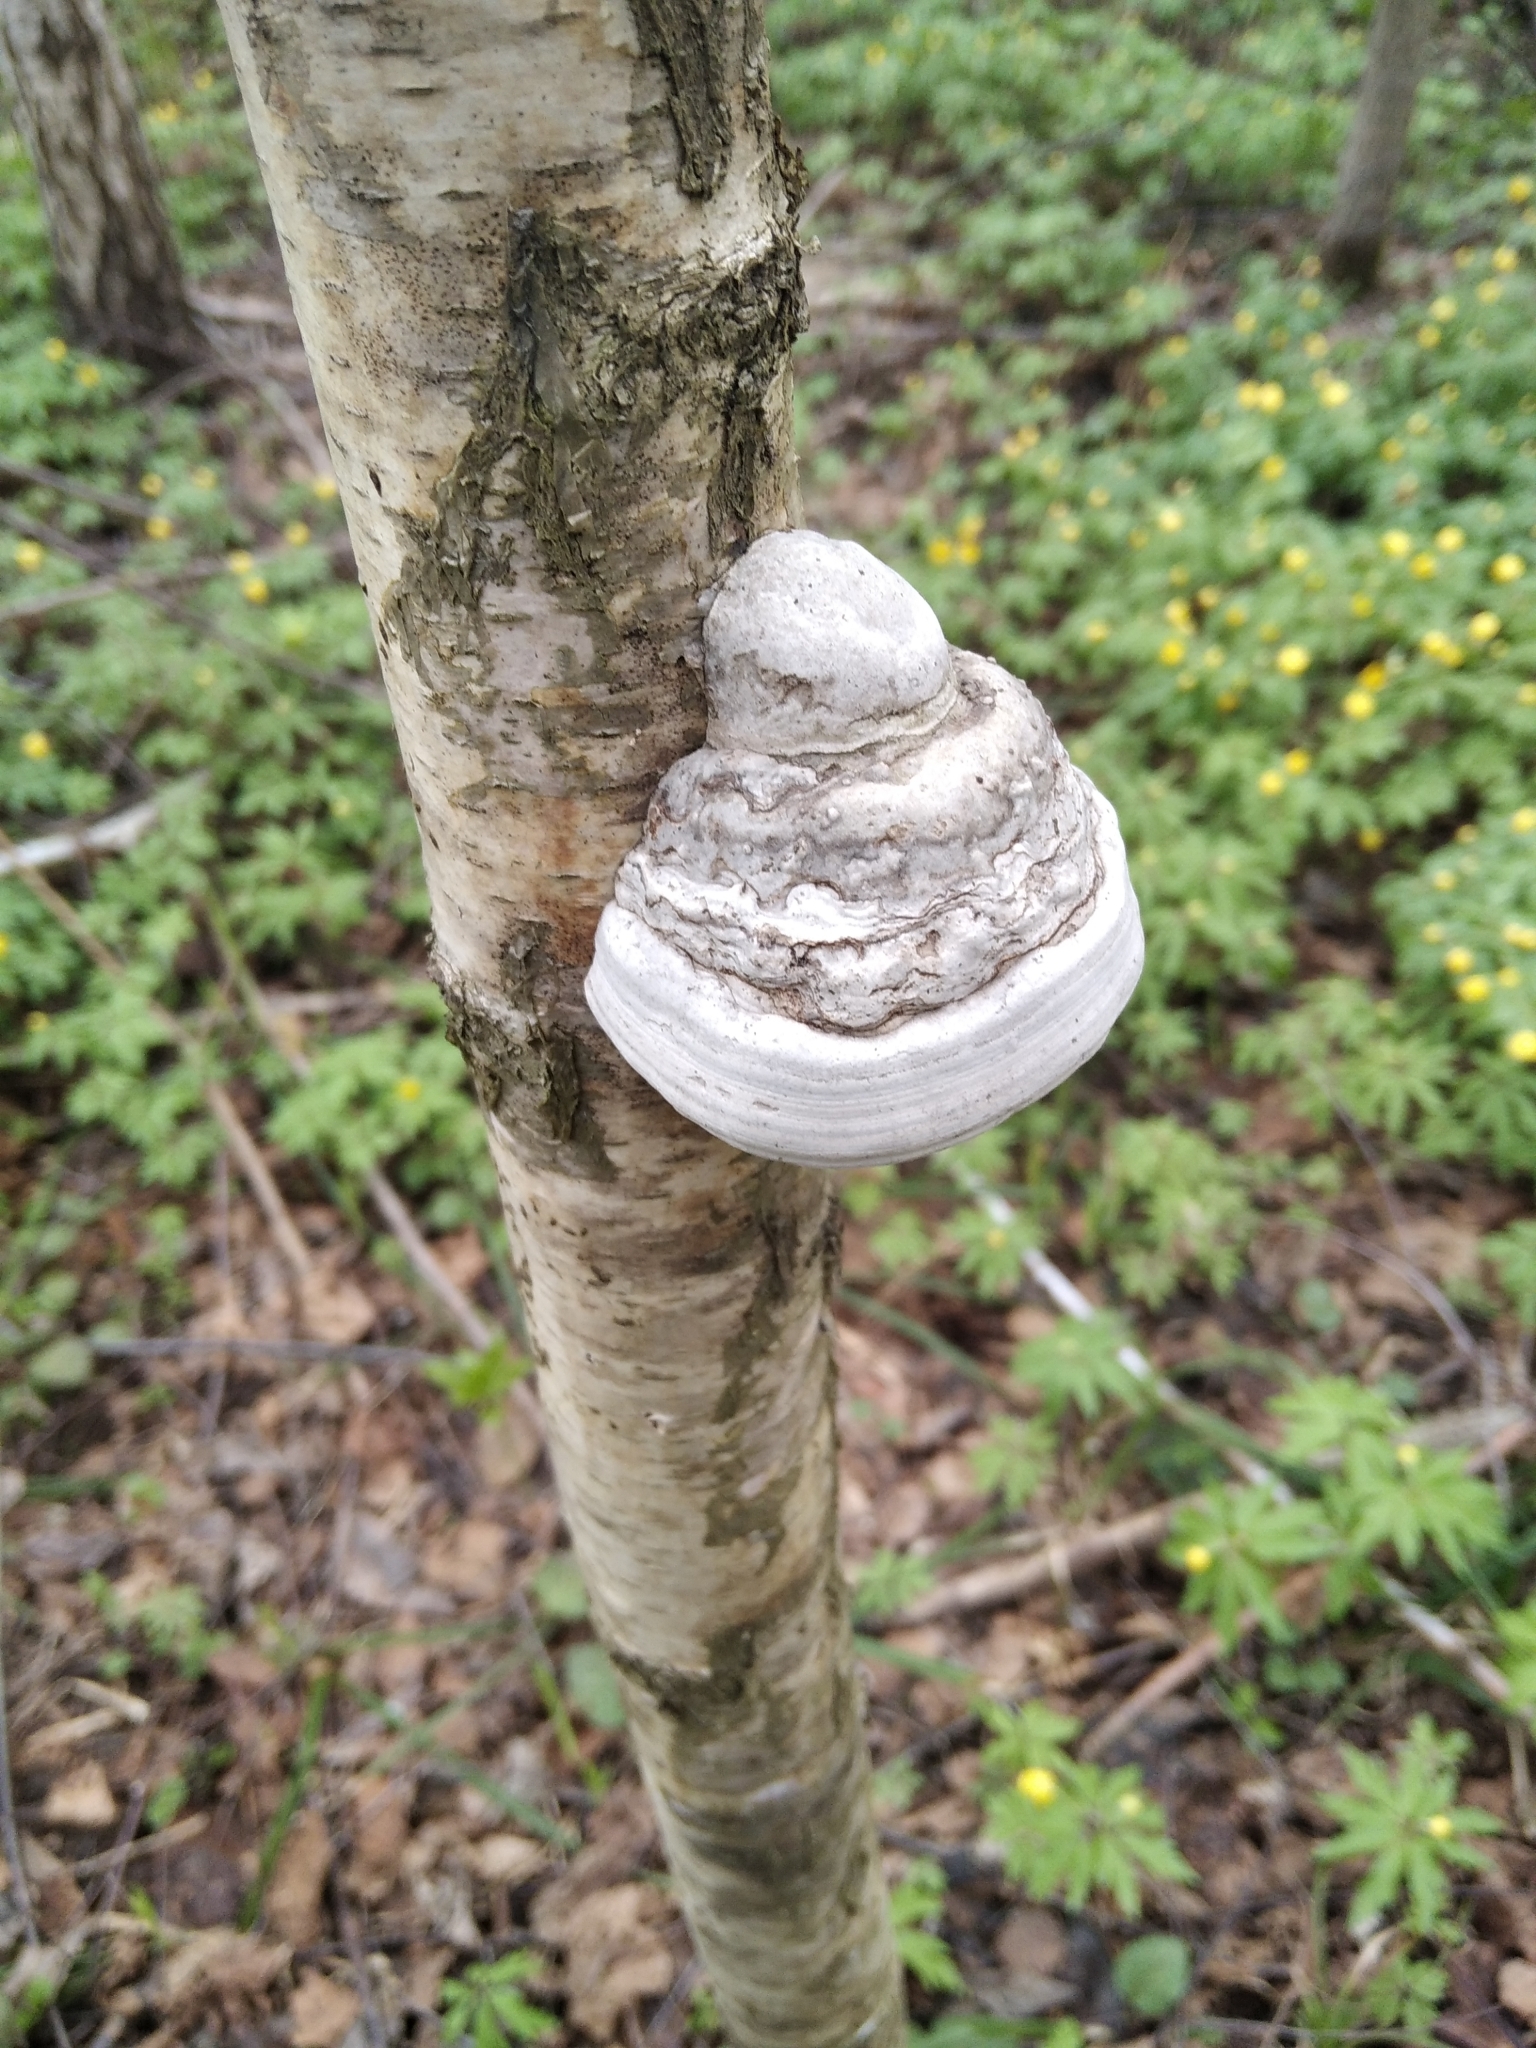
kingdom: Fungi
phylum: Basidiomycota
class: Agaricomycetes
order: Polyporales
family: Polyporaceae
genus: Fomes
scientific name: Fomes fomentarius
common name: Hoof fungus
